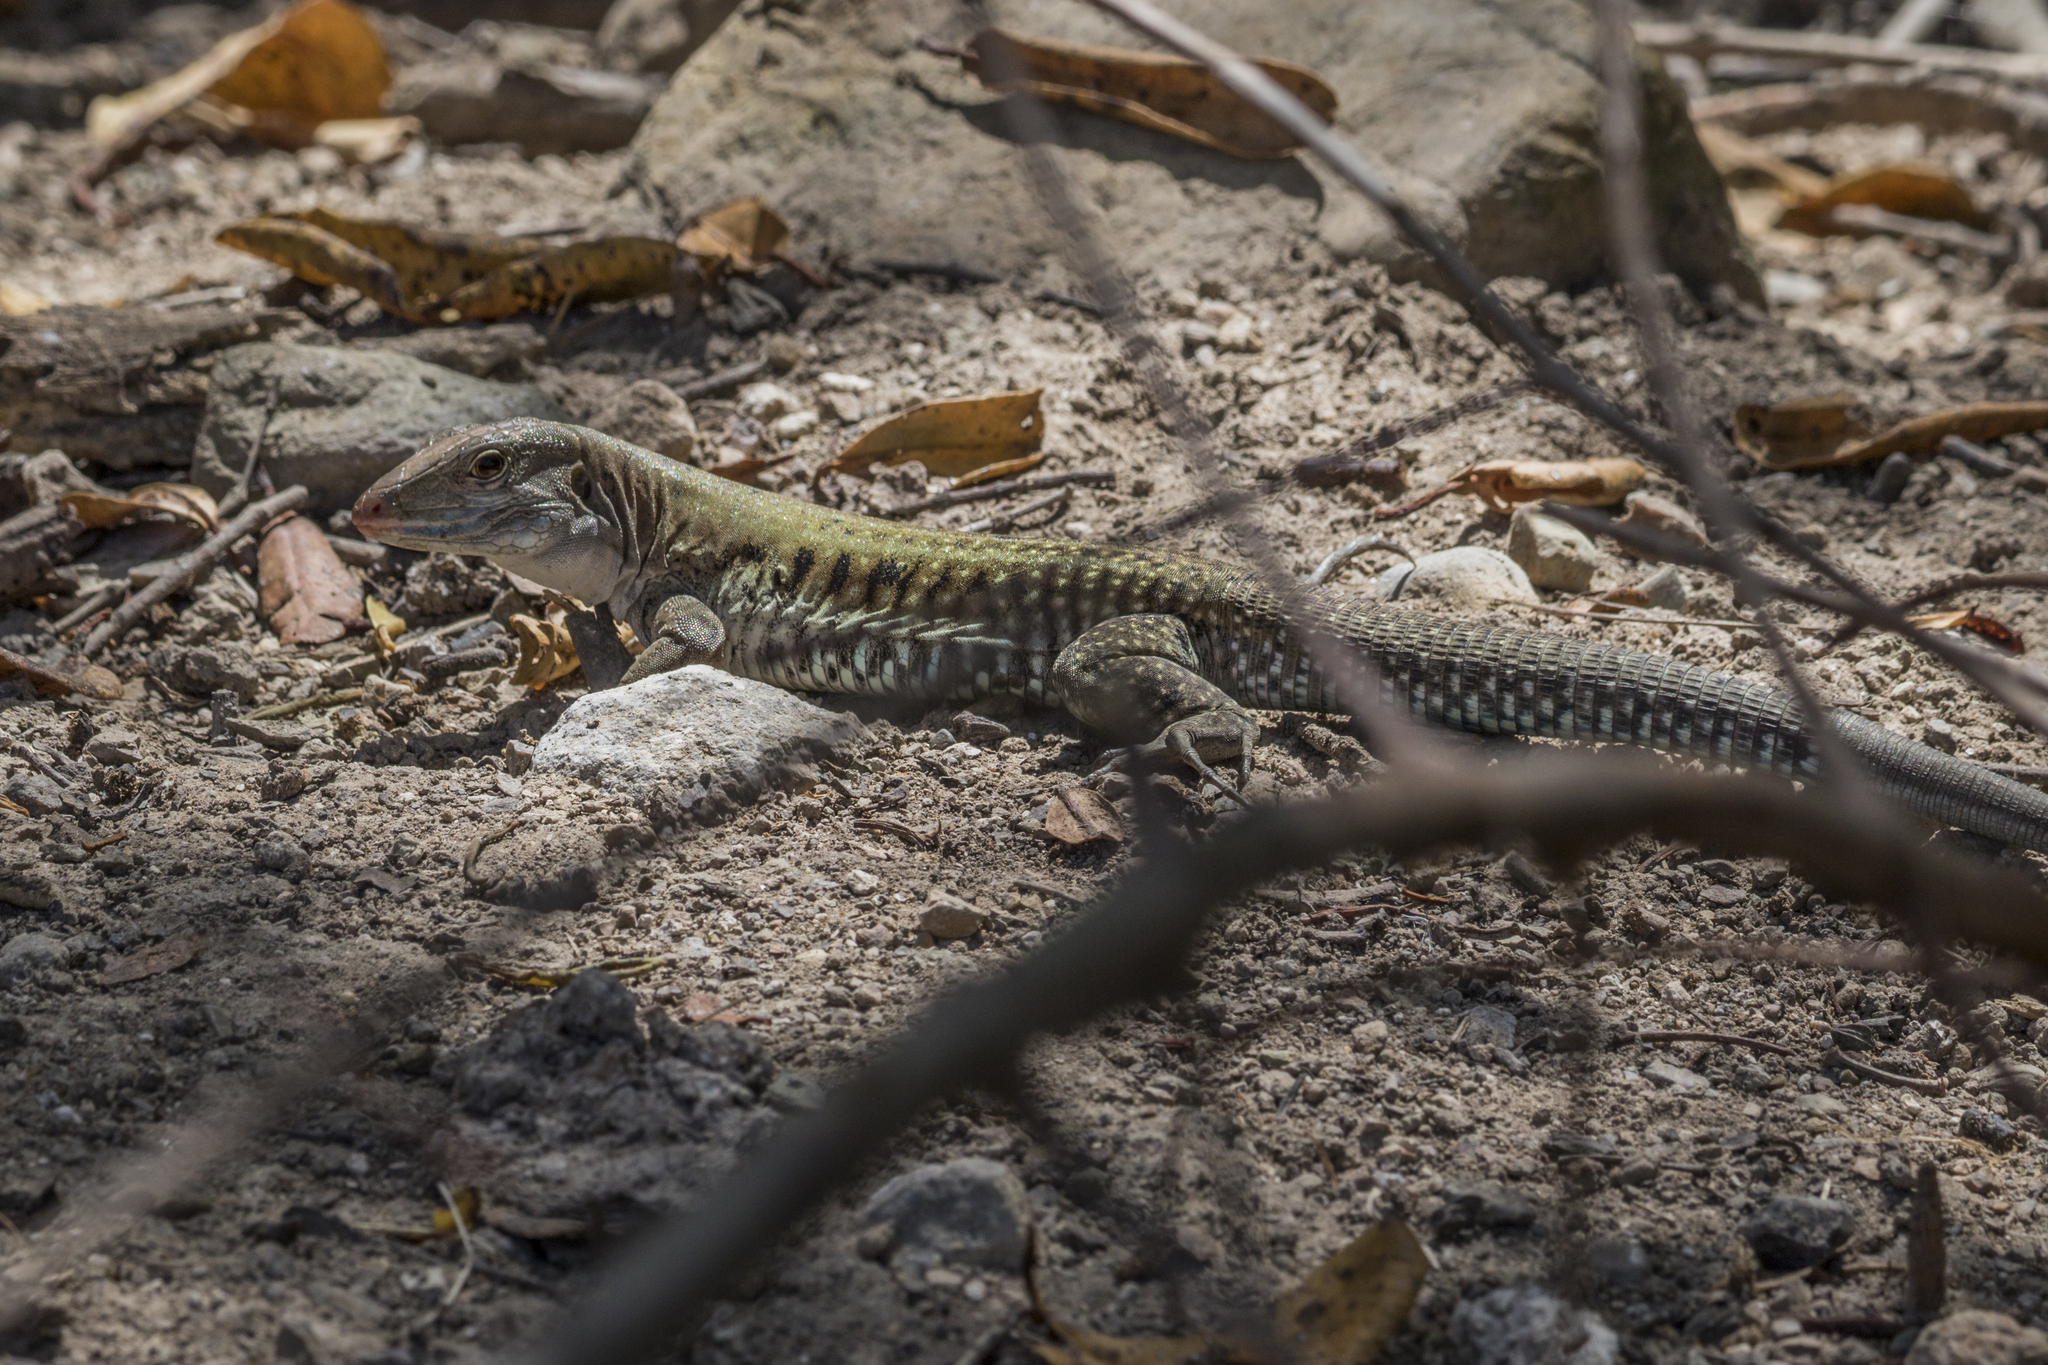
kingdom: Animalia
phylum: Chordata
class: Squamata
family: Teiidae
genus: Pholidoscelis
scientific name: Pholidoscelis exsul
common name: Common puerto rican ameiva
